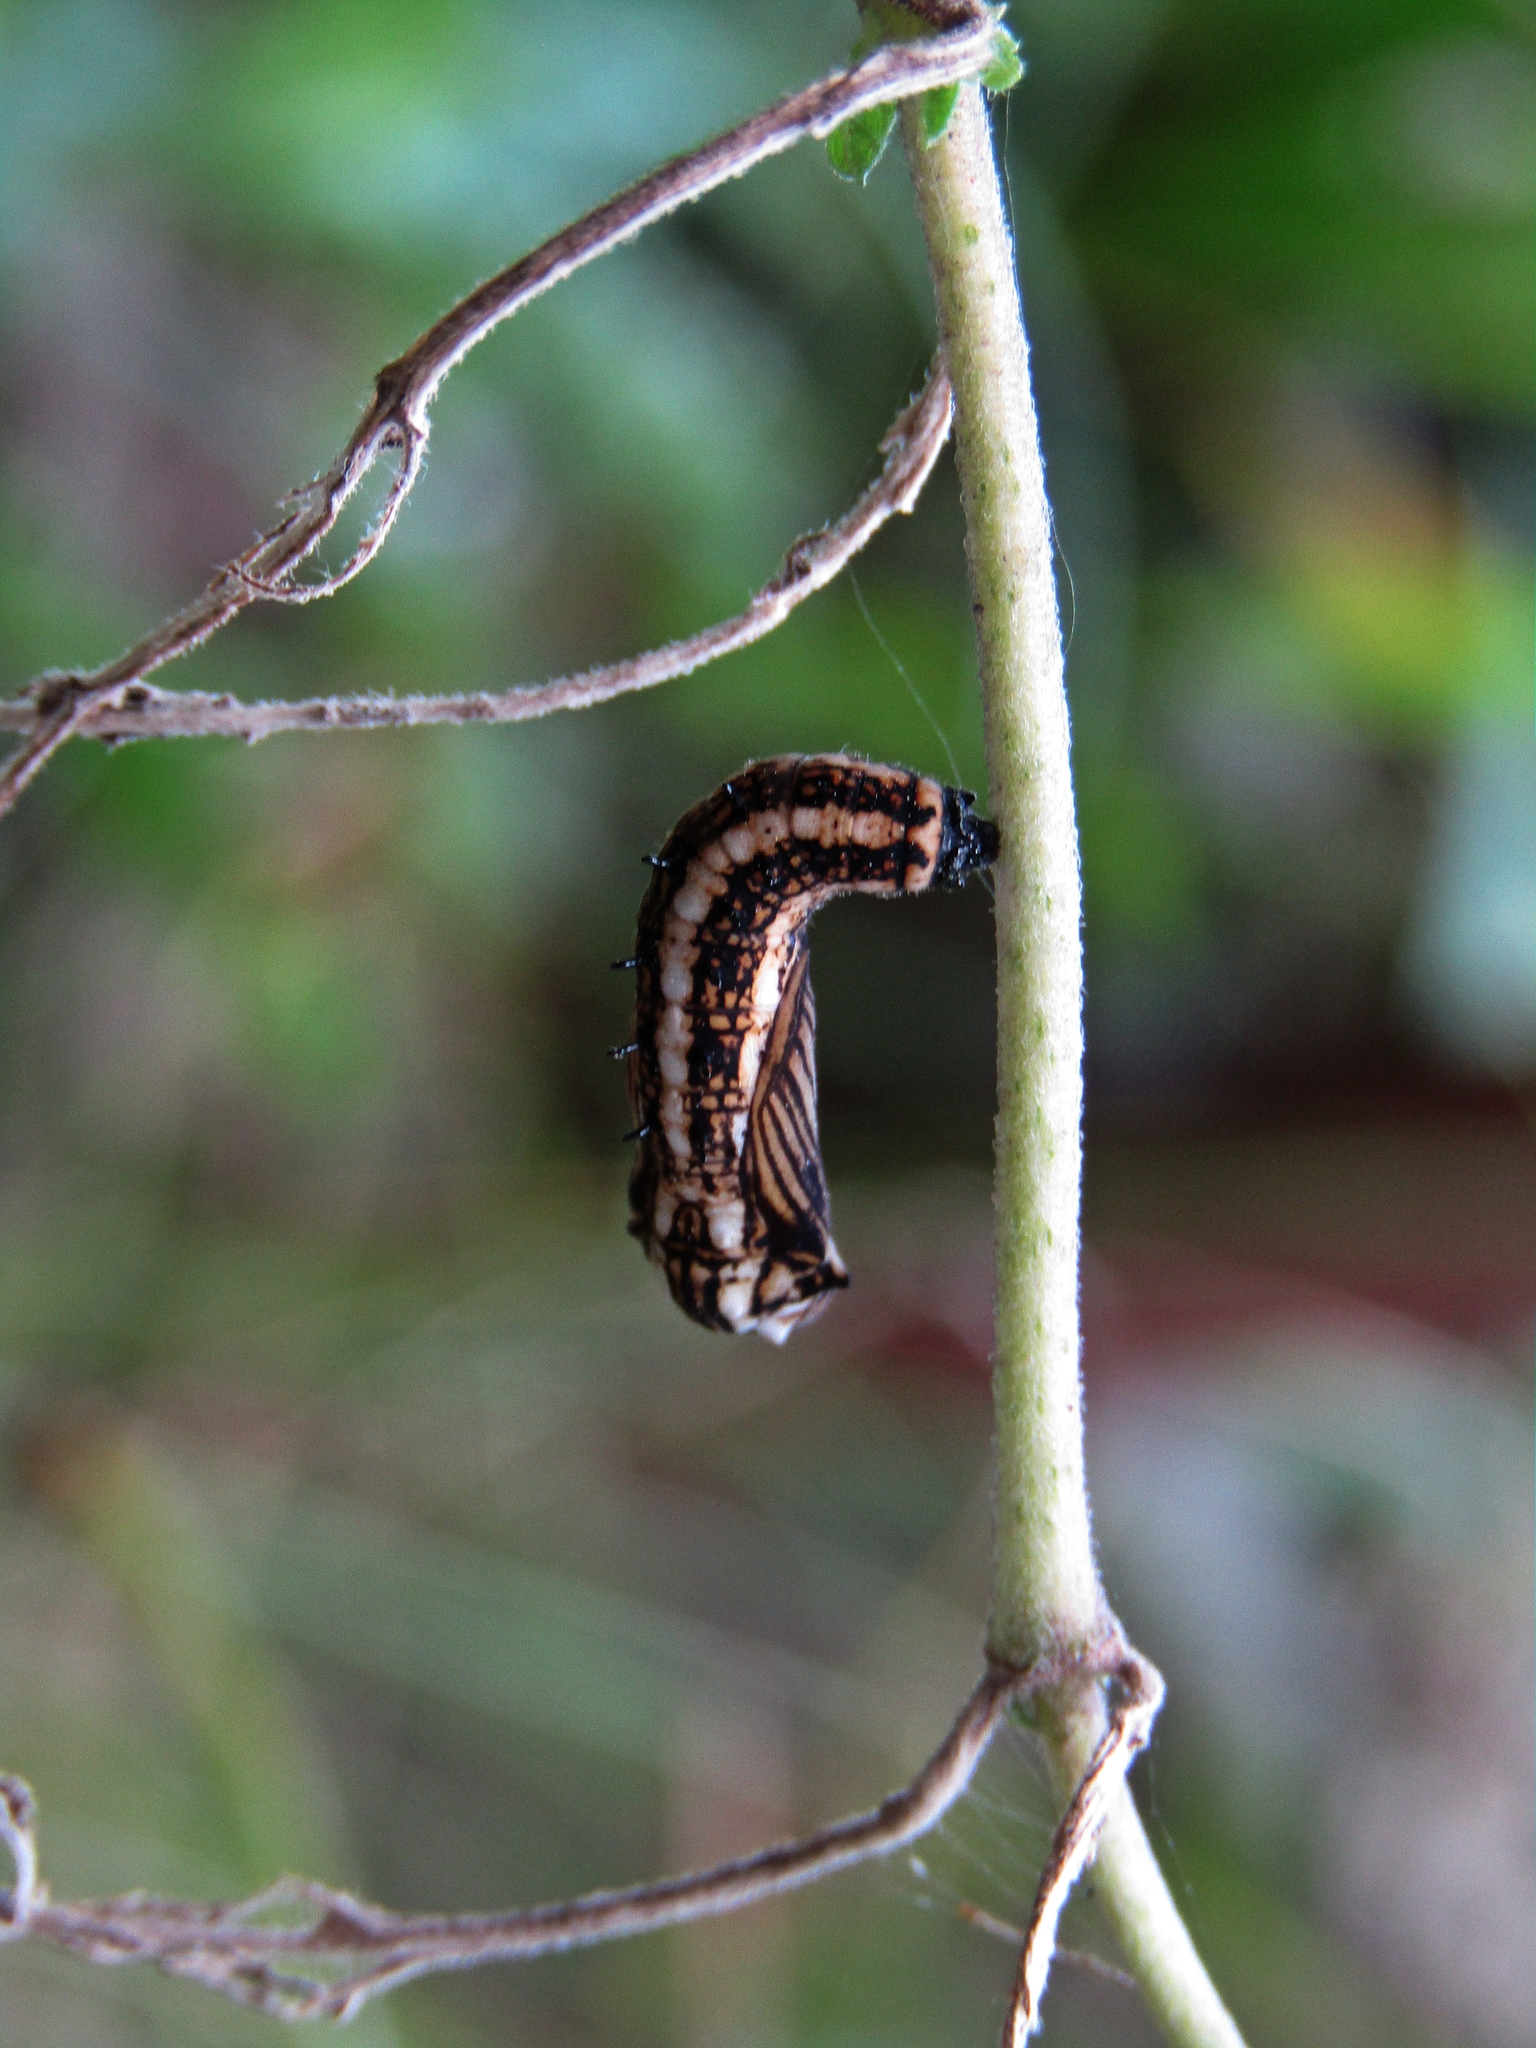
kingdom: Animalia
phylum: Arthropoda
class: Insecta
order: Lepidoptera
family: Nymphalidae
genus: Actinote
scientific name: Actinote pellenea
